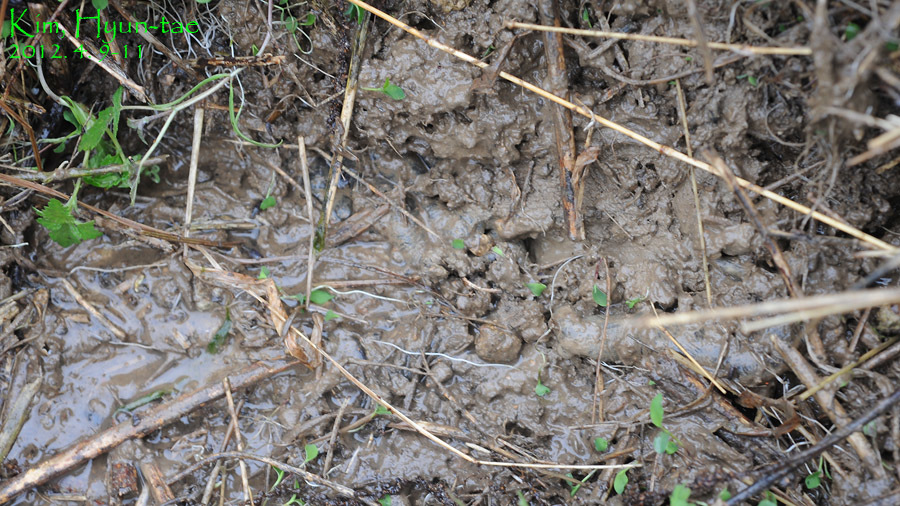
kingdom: Animalia
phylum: Chordata
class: Amphibia
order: Caudata
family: Hynobiidae
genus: Hynobius
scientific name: Hynobius notialis
